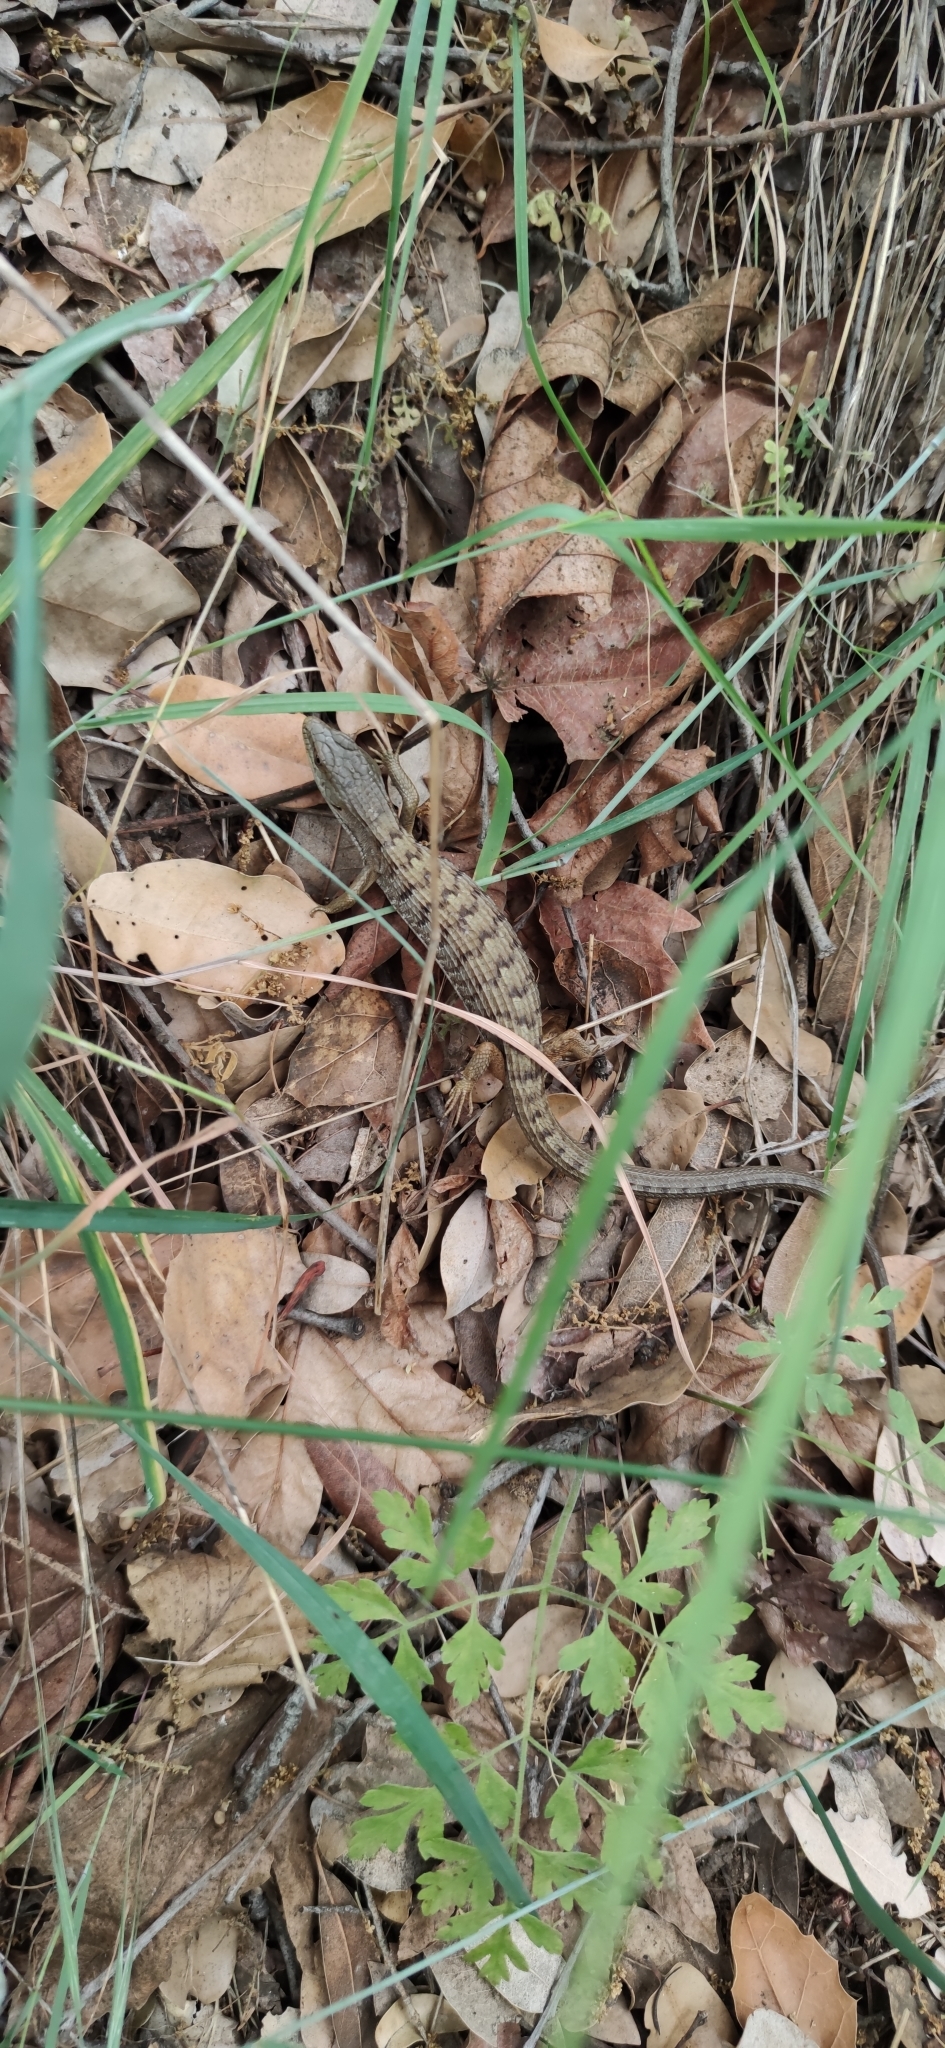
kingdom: Animalia
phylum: Chordata
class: Squamata
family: Anguidae
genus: Elgaria
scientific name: Elgaria multicarinata
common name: Southern alligator lizard
